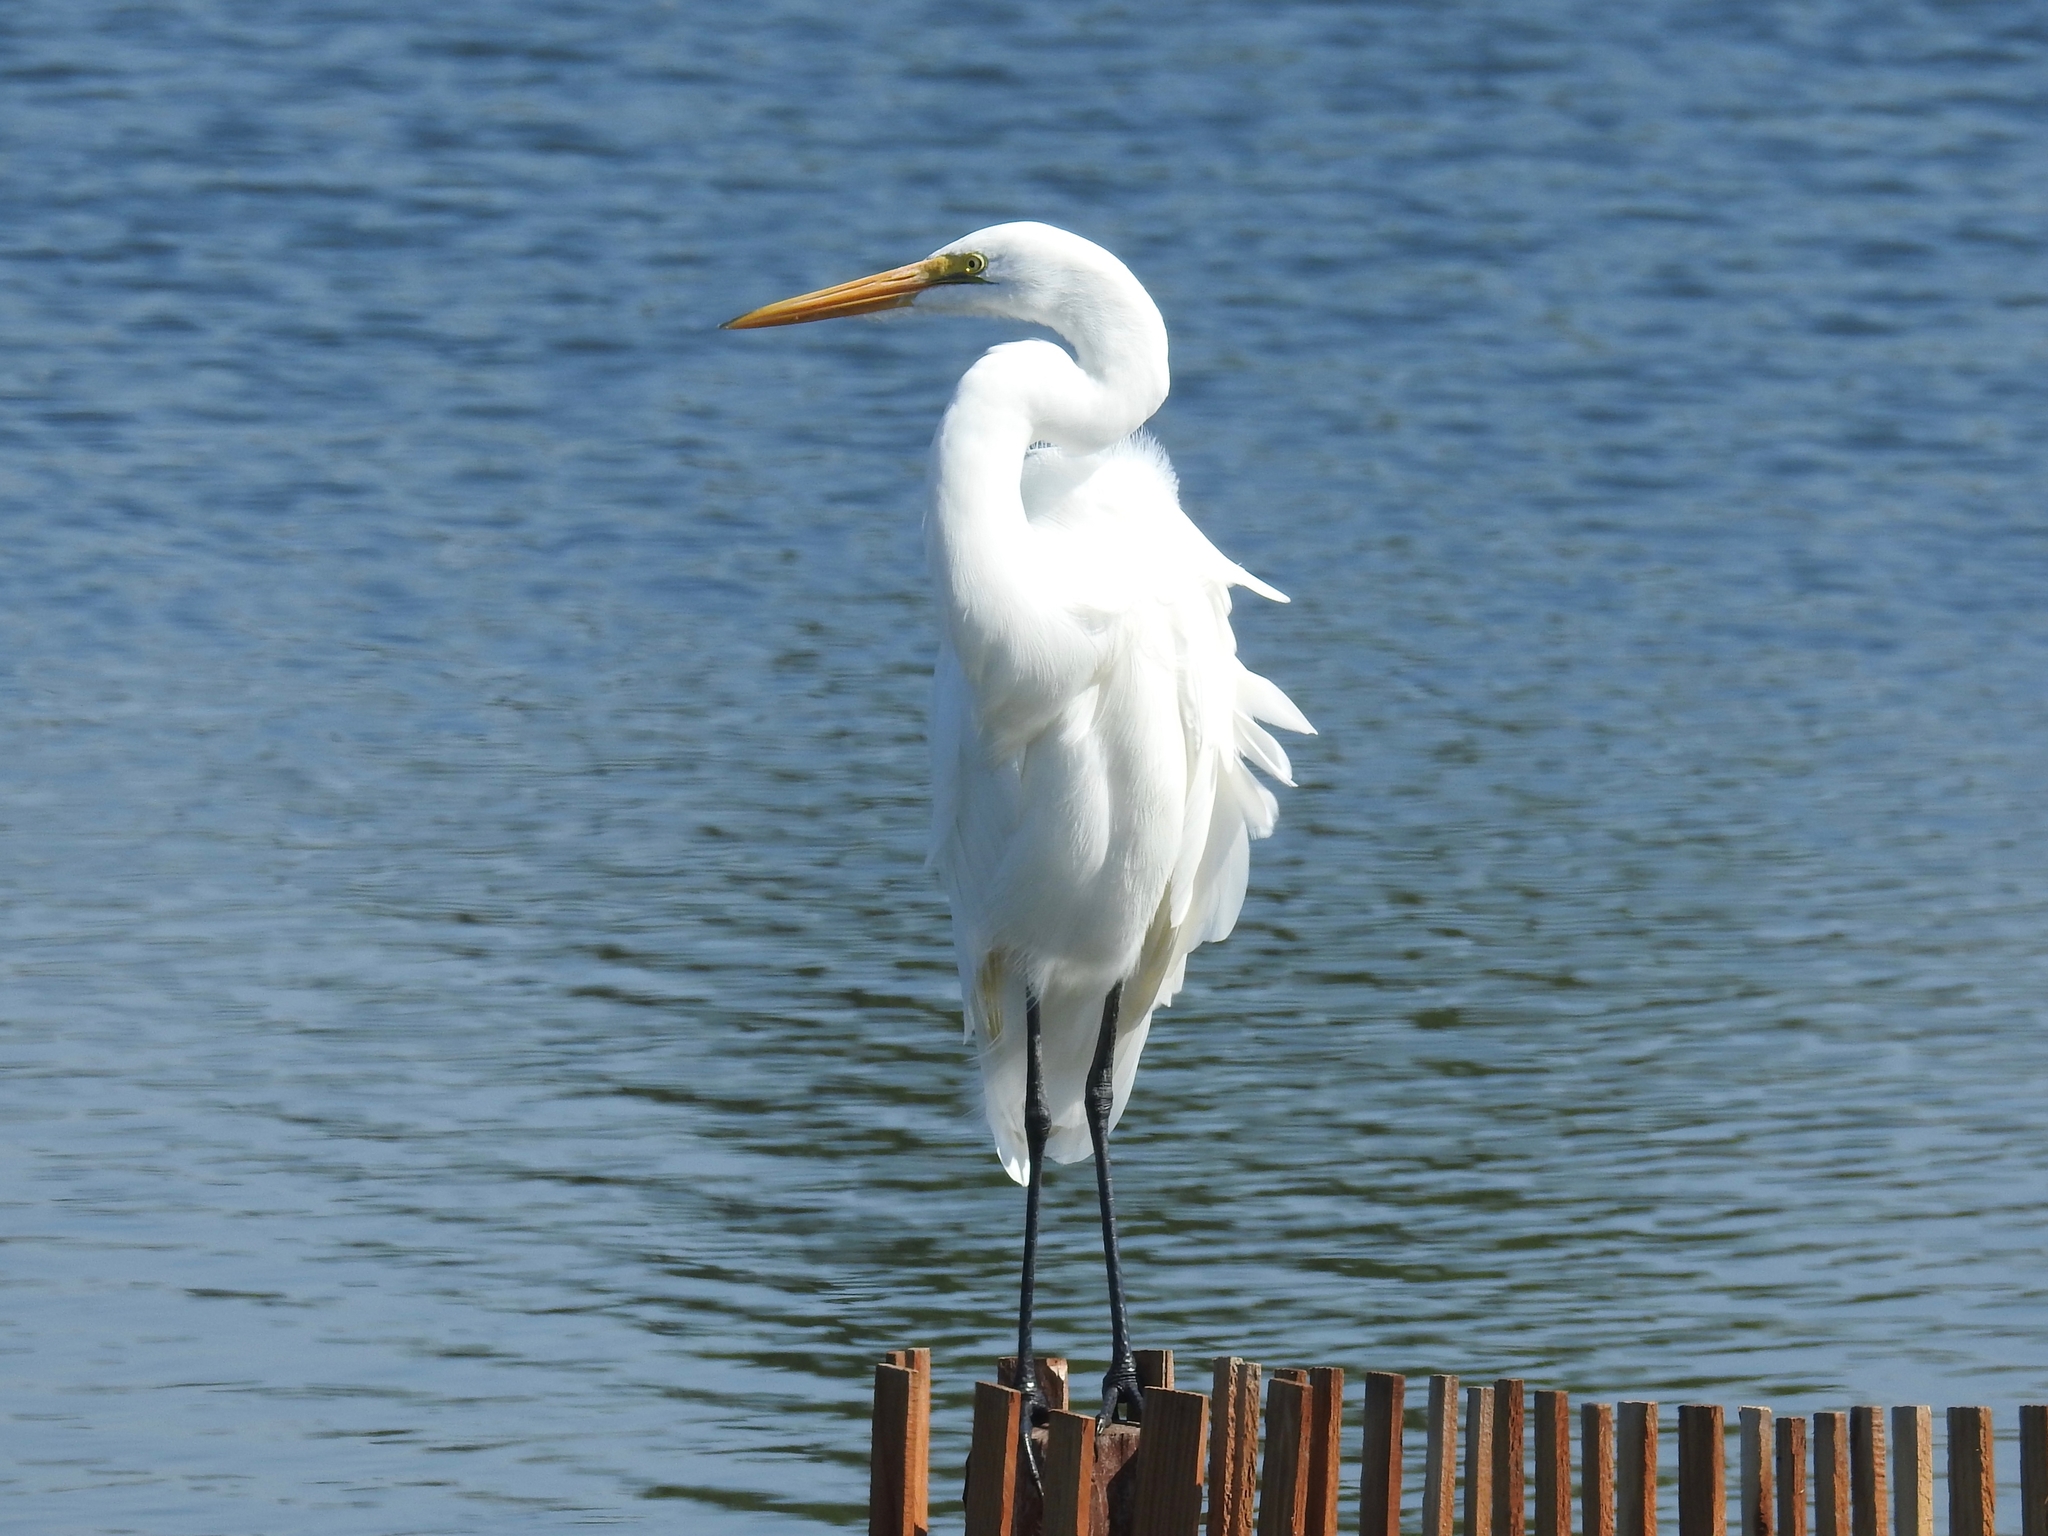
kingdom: Animalia
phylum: Chordata
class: Aves
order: Pelecaniformes
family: Ardeidae
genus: Ardea
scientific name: Ardea alba
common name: Great egret
